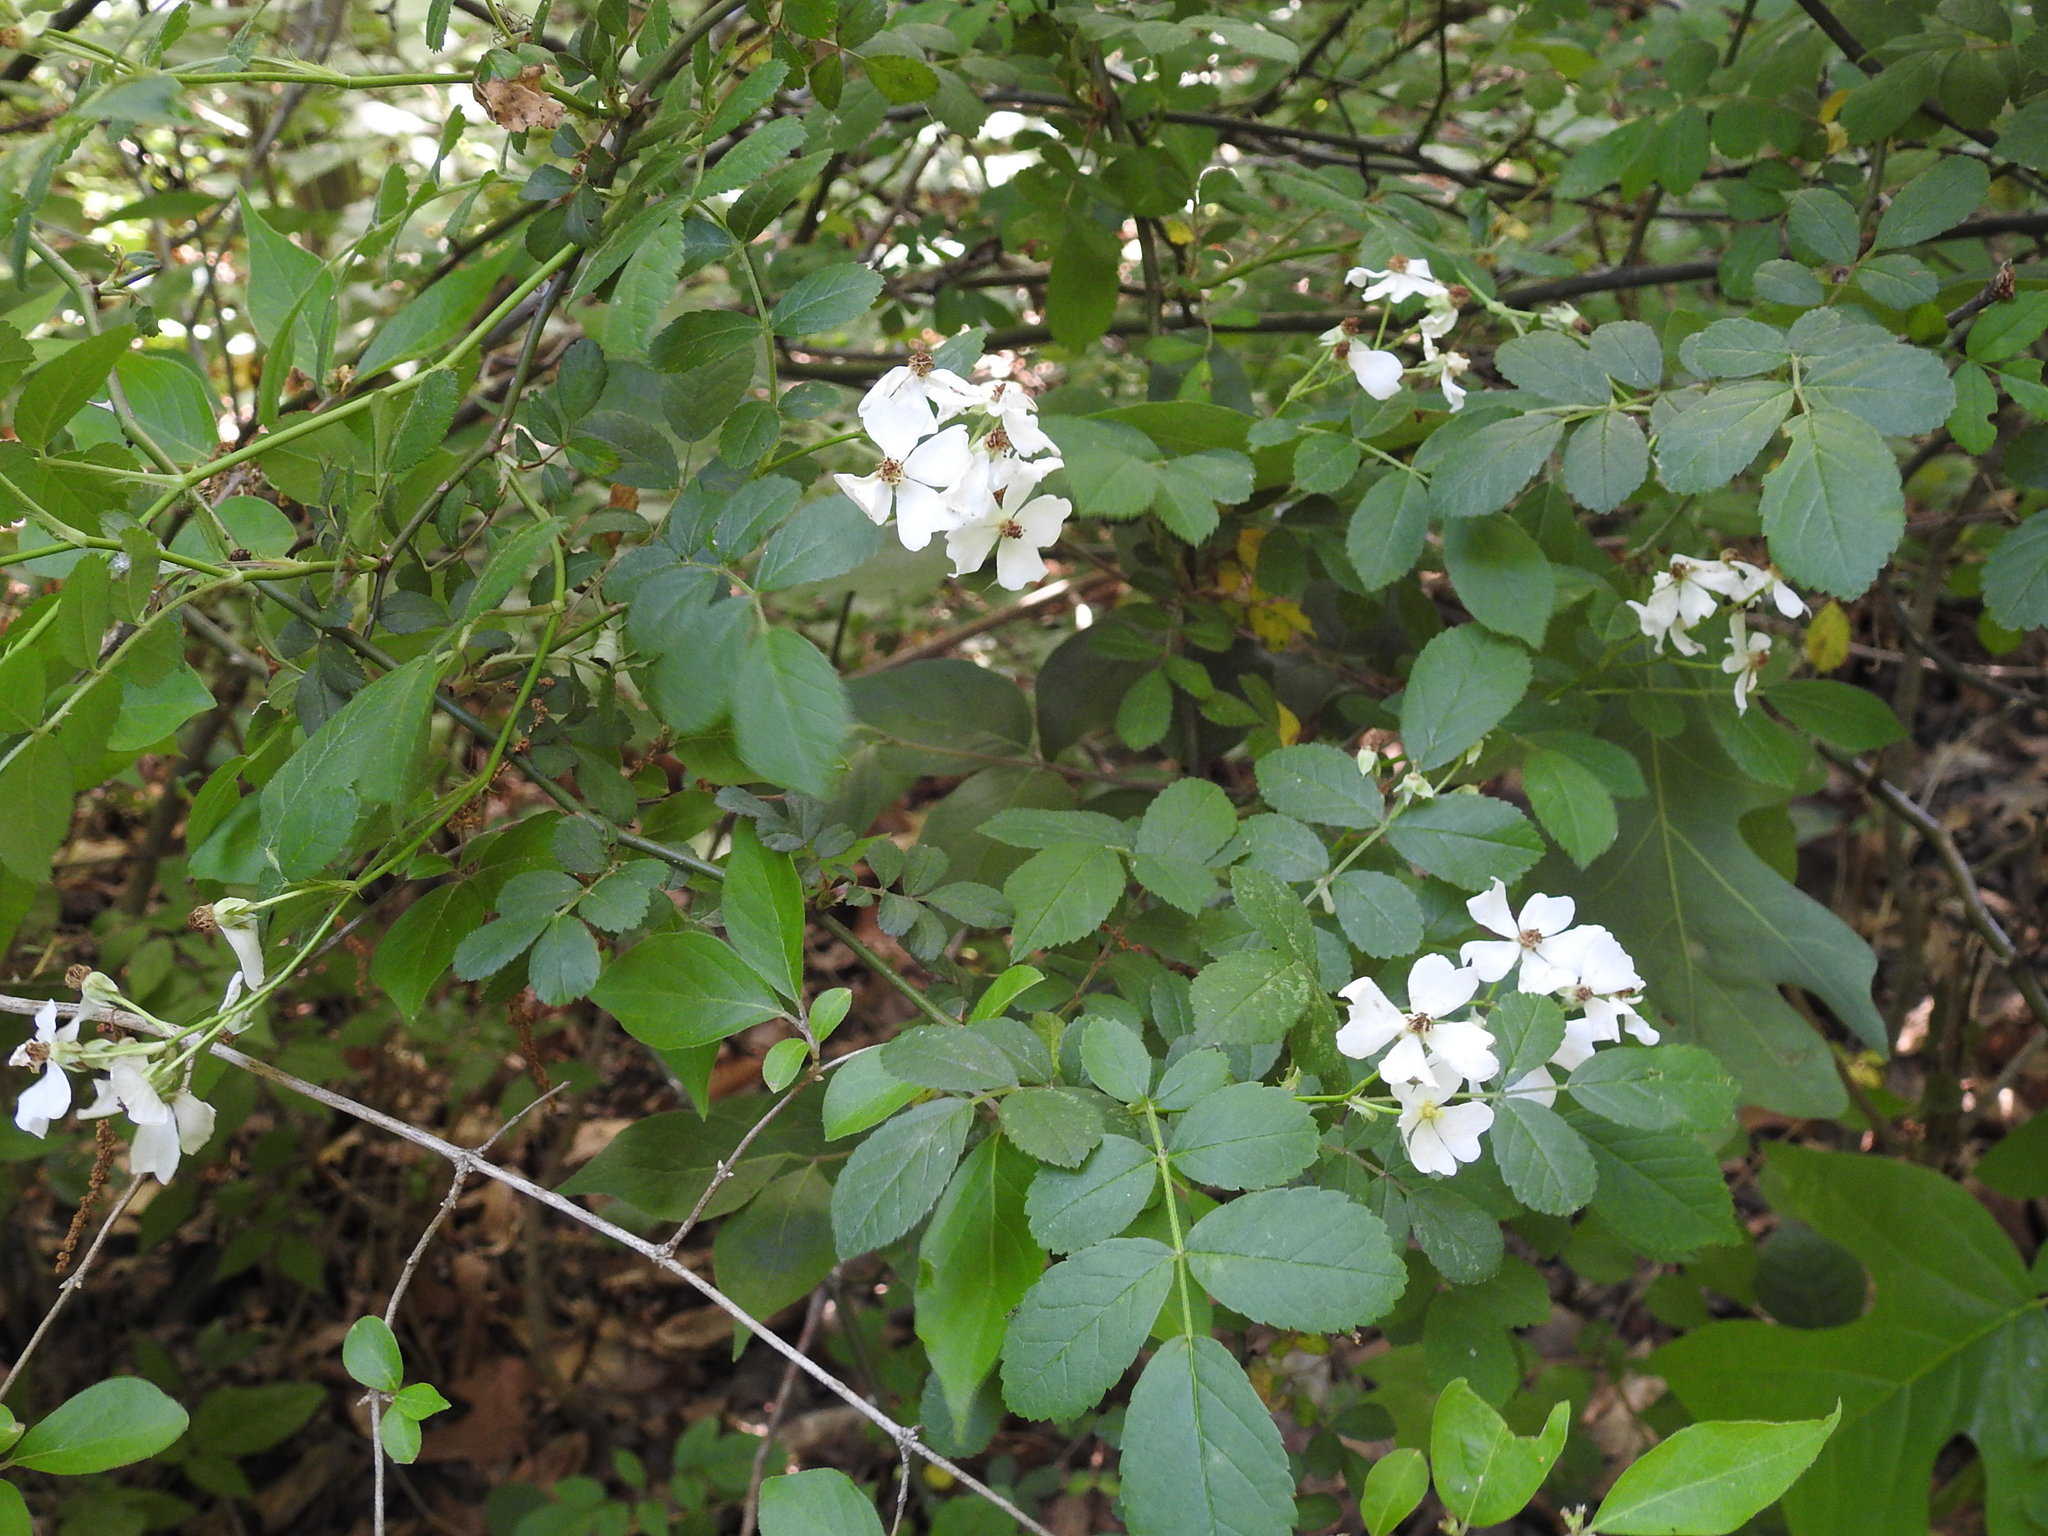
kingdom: Plantae
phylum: Tracheophyta
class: Magnoliopsida
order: Rosales
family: Rosaceae
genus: Rosa
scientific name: Rosa multiflora
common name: Multiflora rose
